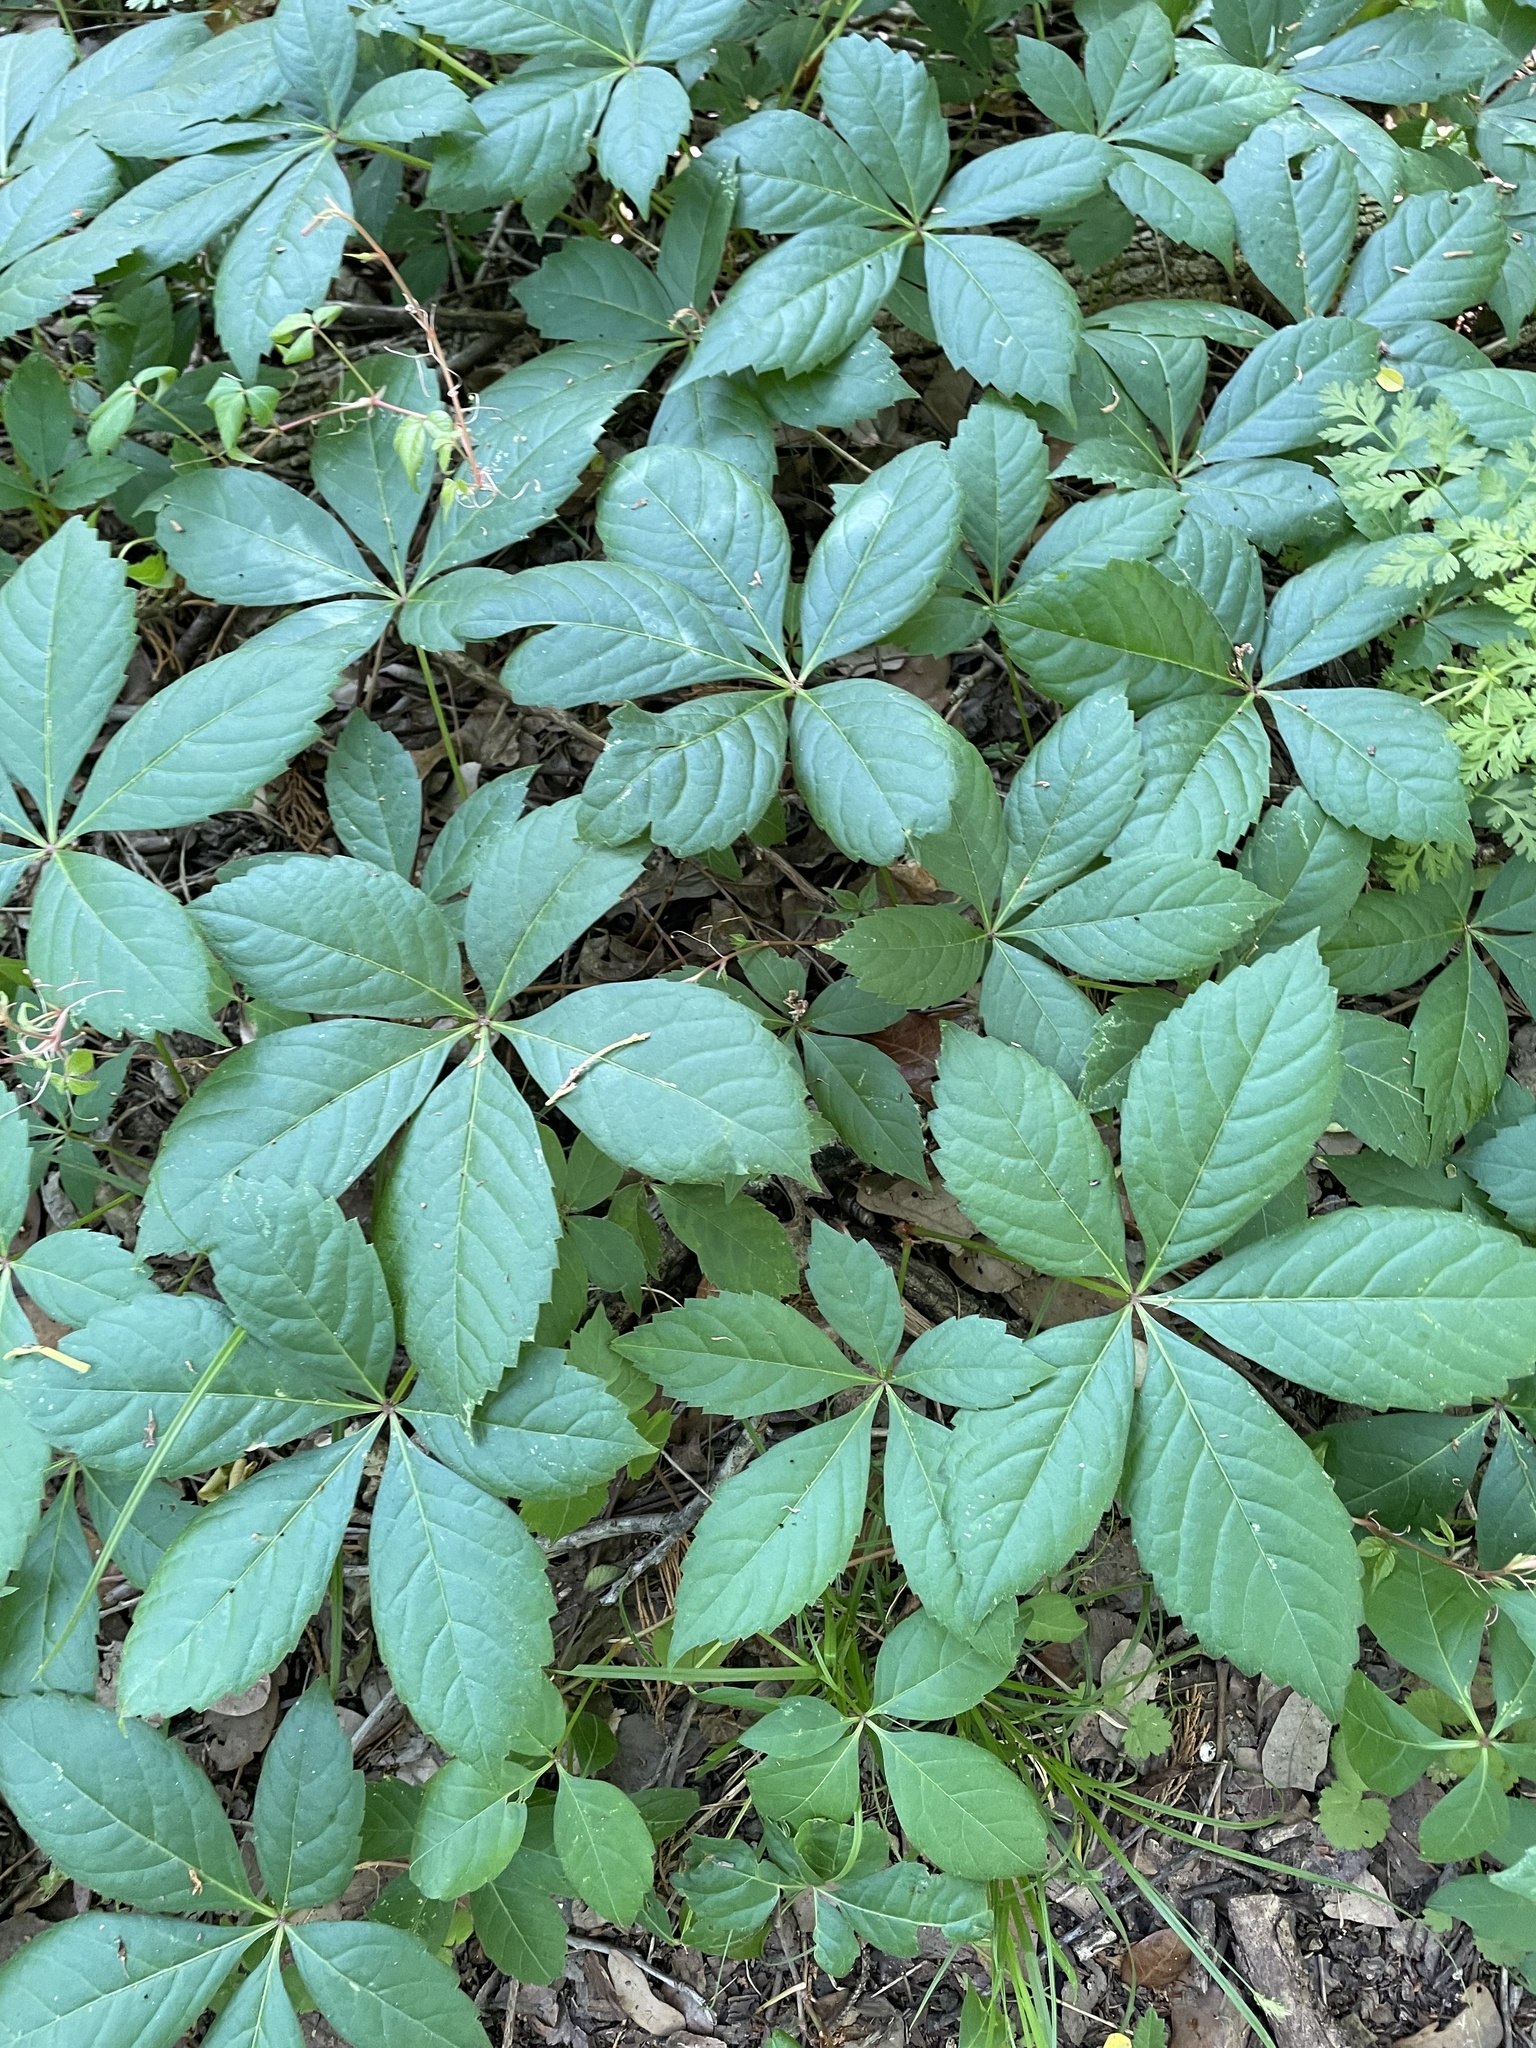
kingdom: Plantae
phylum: Tracheophyta
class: Magnoliopsida
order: Vitales
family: Vitaceae
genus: Parthenocissus
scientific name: Parthenocissus quinquefolia
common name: Virginia-creeper
